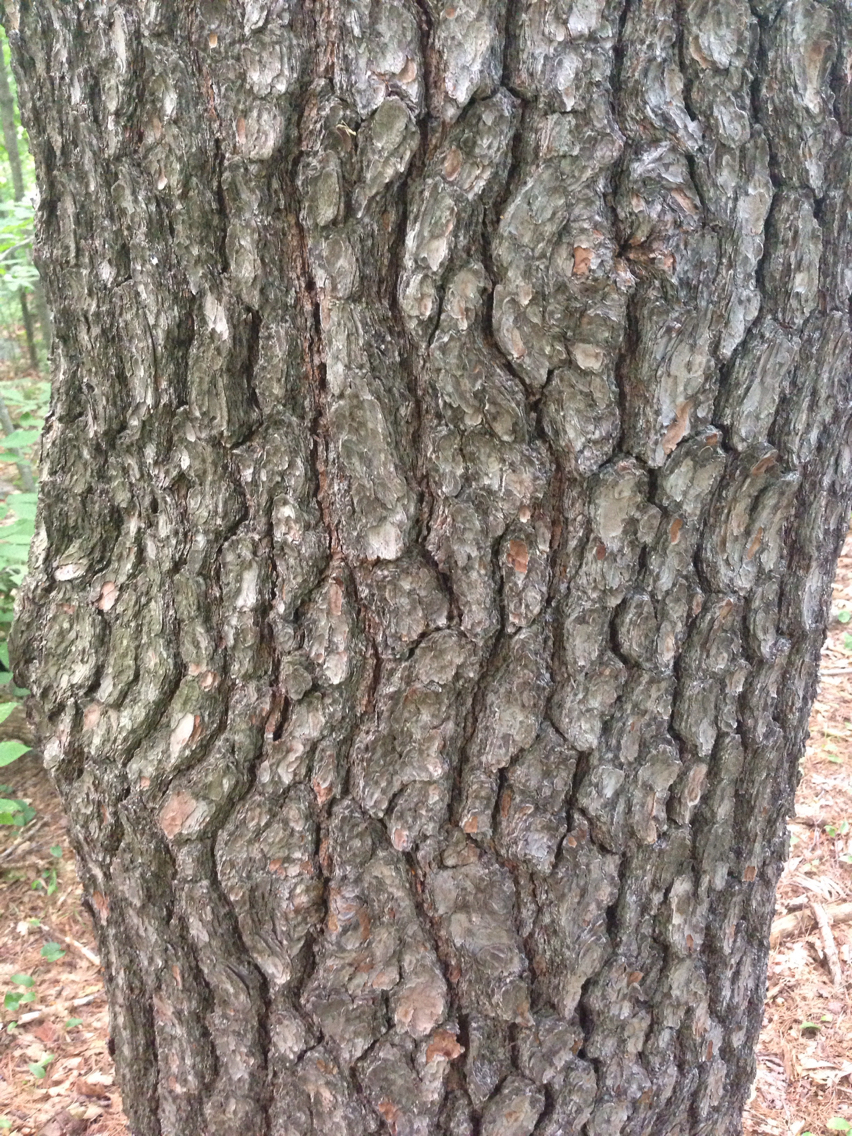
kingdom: Plantae
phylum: Tracheophyta
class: Pinopsida
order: Pinales
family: Pinaceae
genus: Pinus
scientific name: Pinus strobus
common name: Weymouth pine
